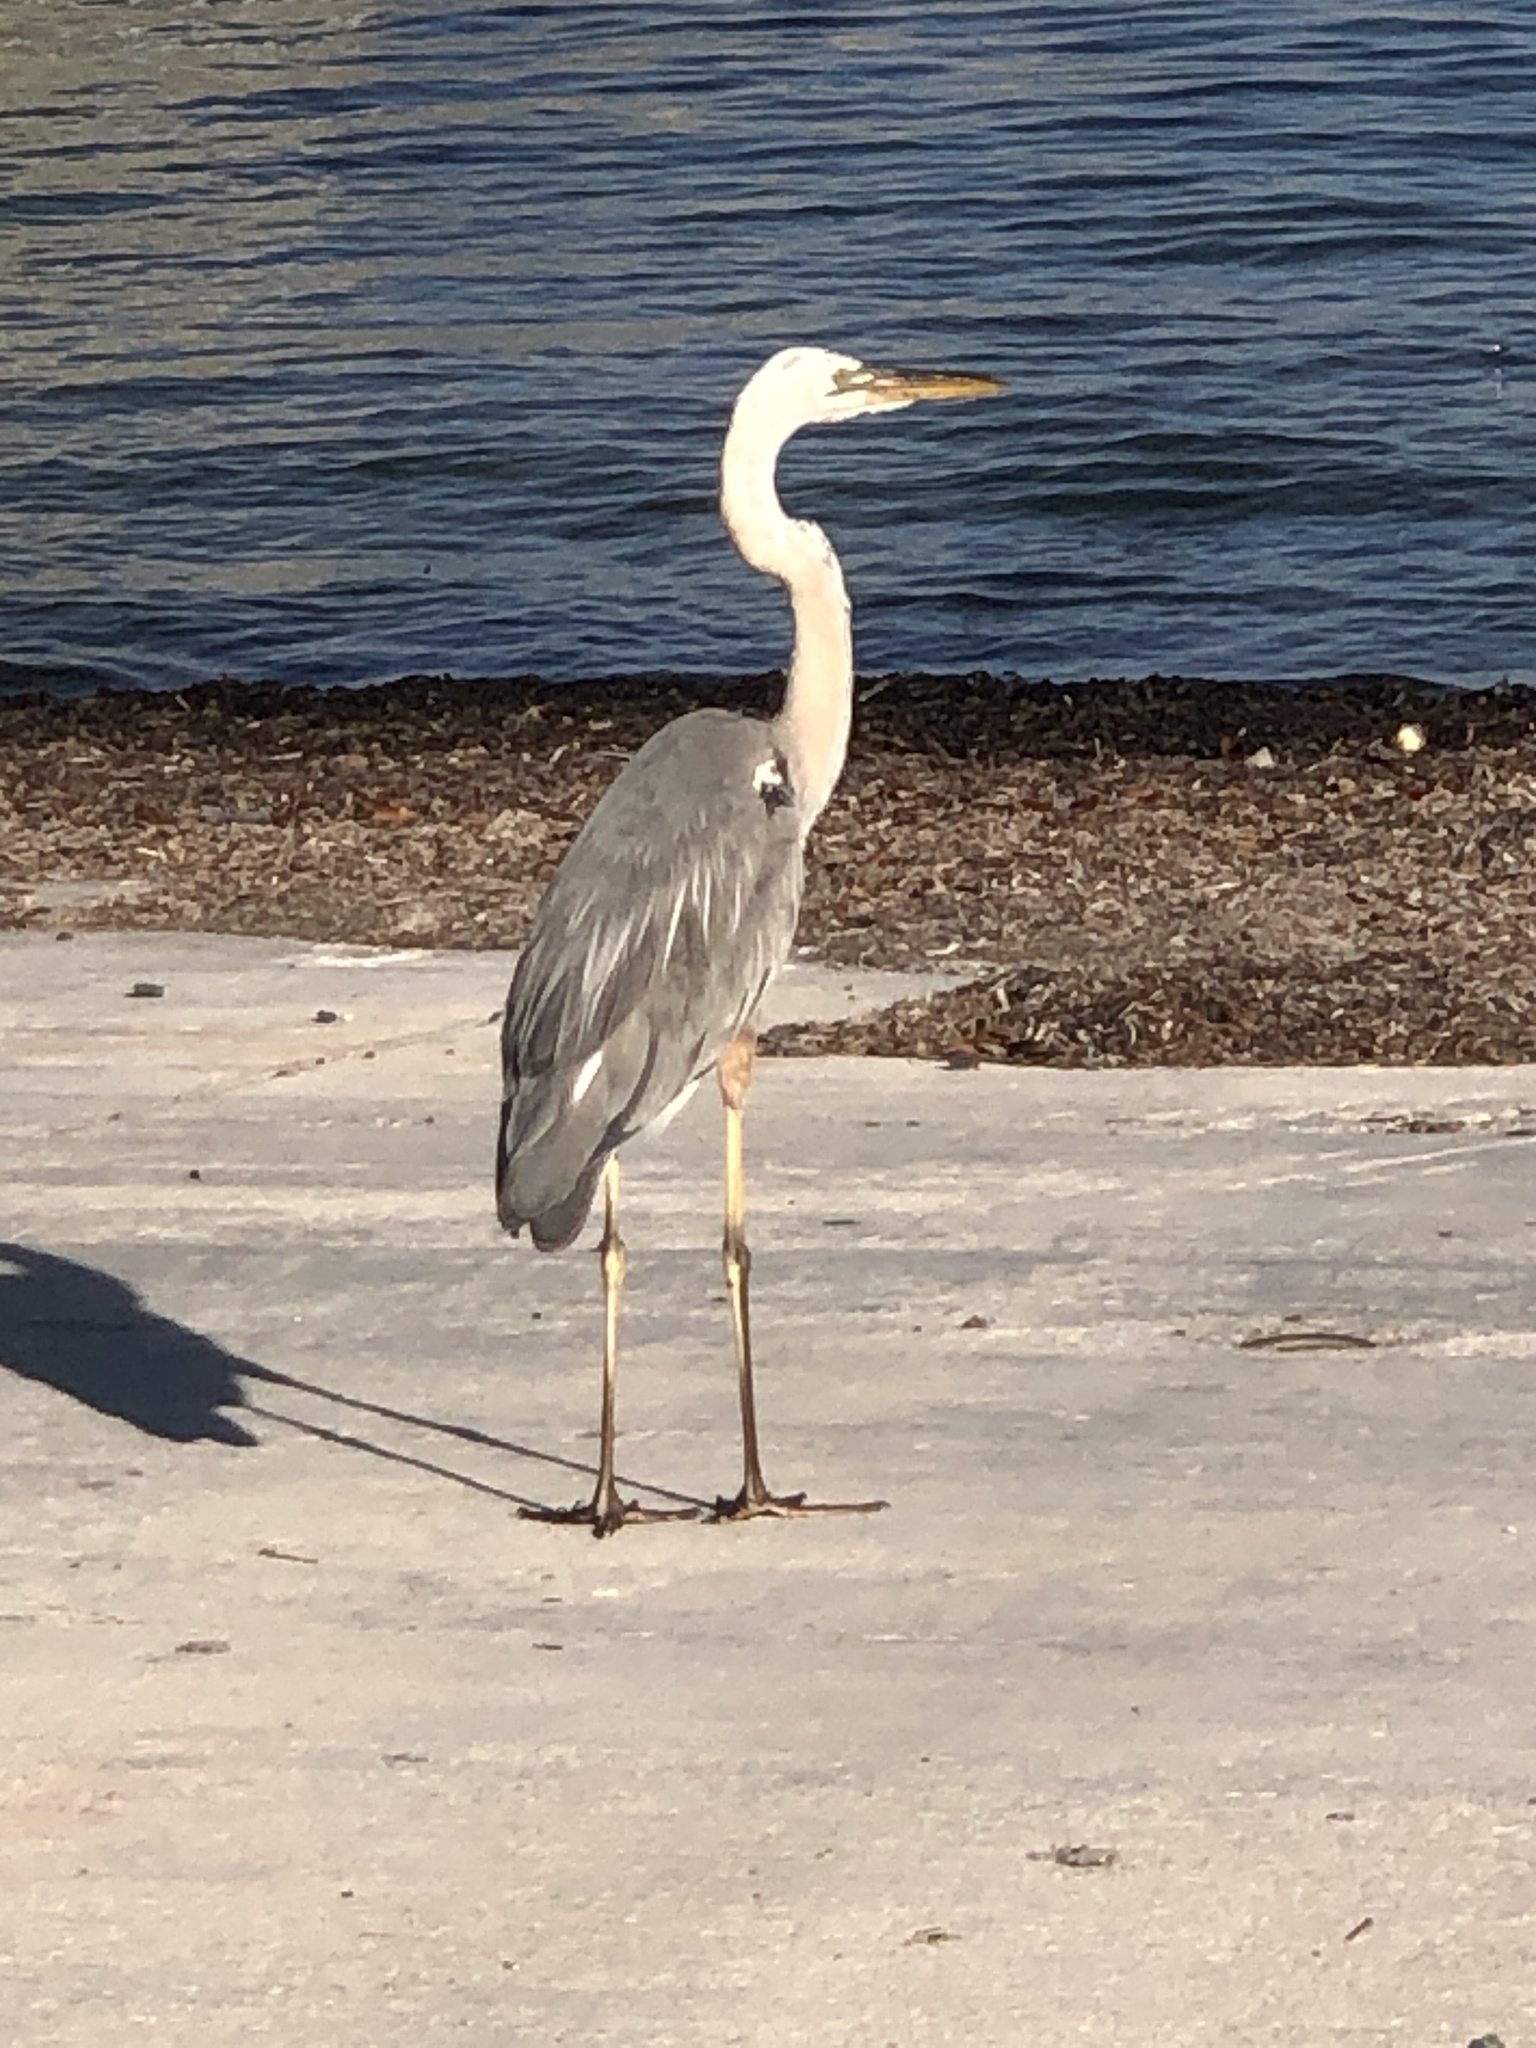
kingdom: Animalia
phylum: Chordata
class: Aves
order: Pelecaniformes
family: Ardeidae
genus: Ardea
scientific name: Ardea
